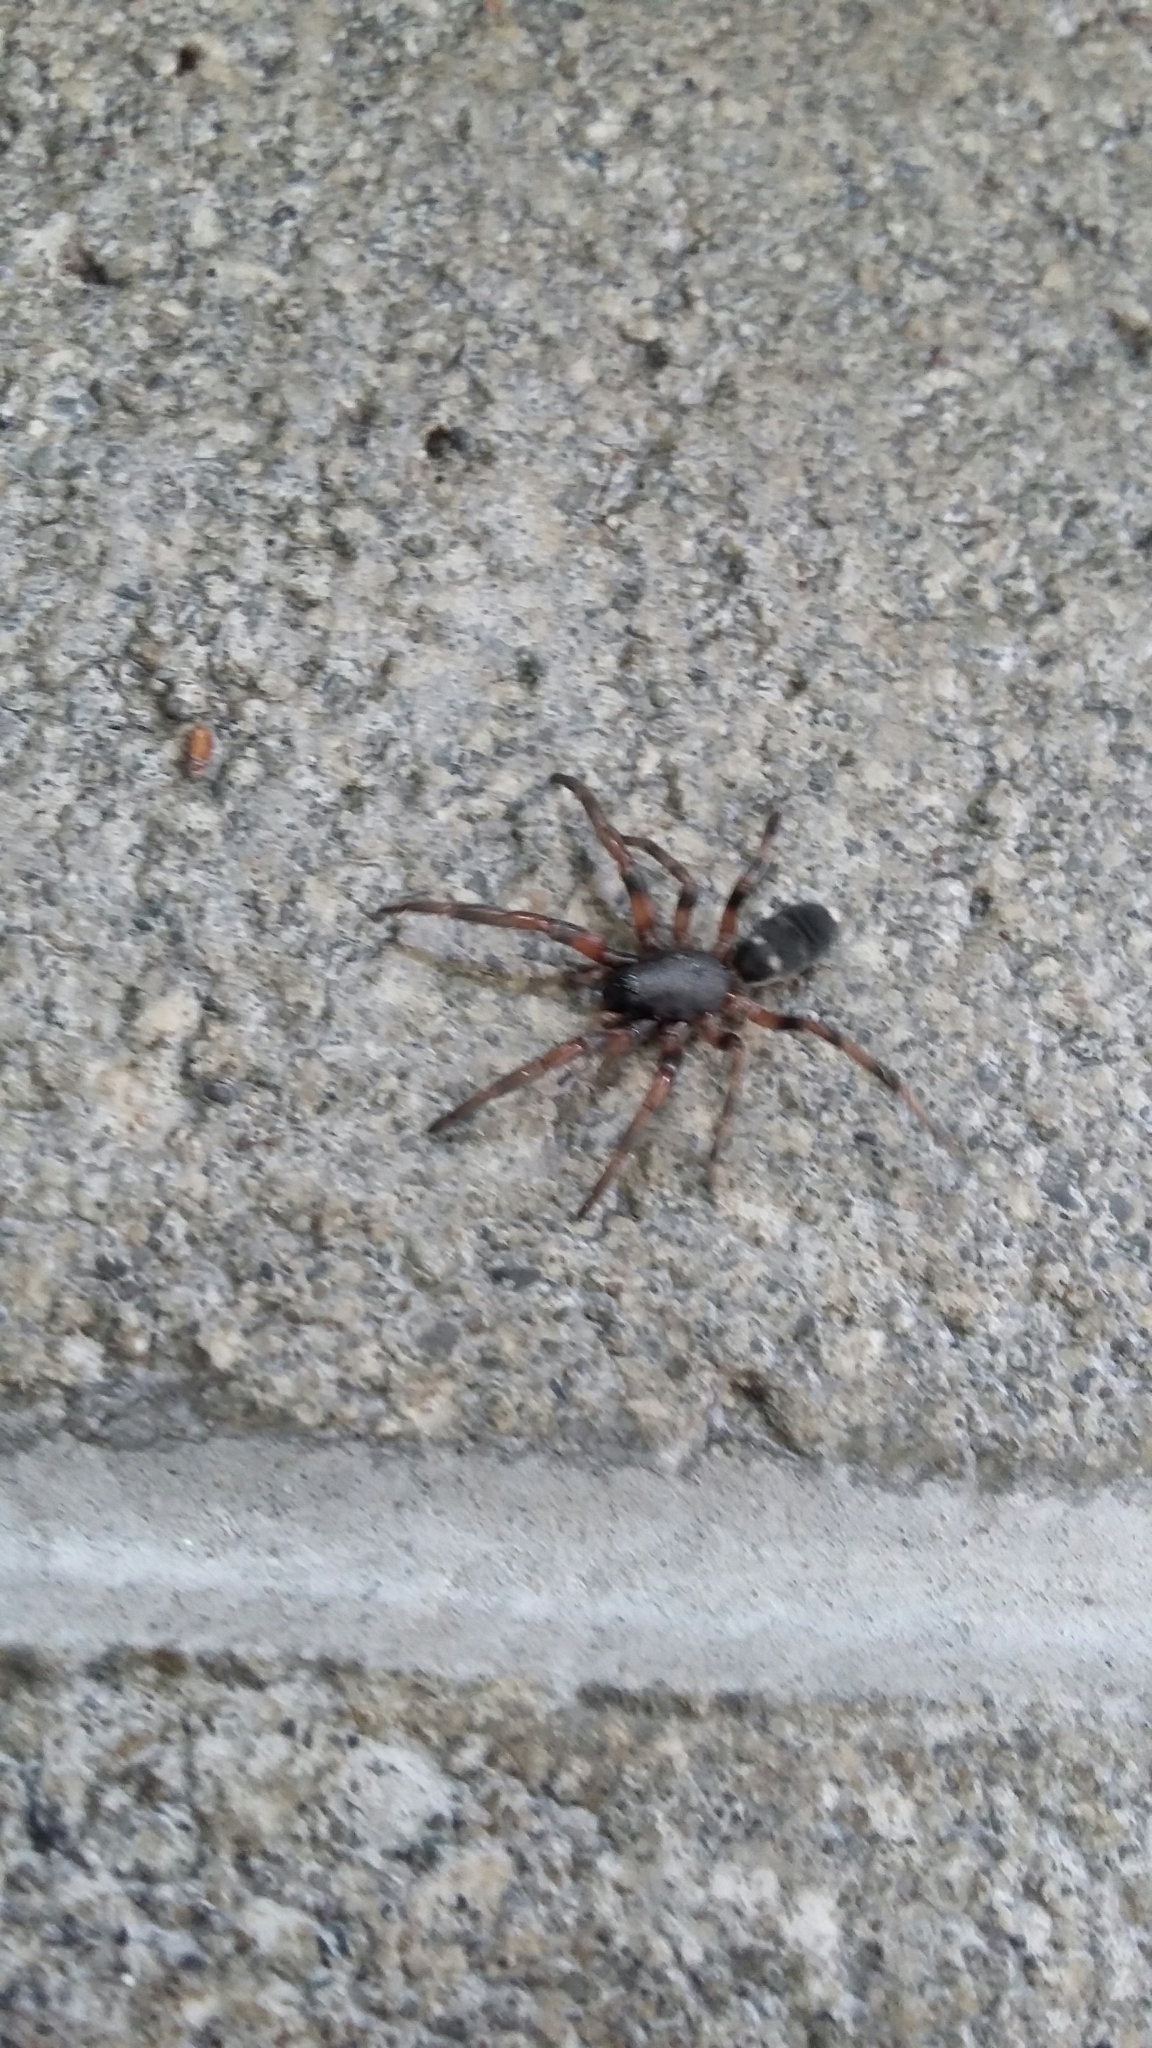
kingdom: Animalia
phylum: Arthropoda
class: Arachnida
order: Araneae
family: Lamponidae
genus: Lampona
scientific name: Lampona murina
